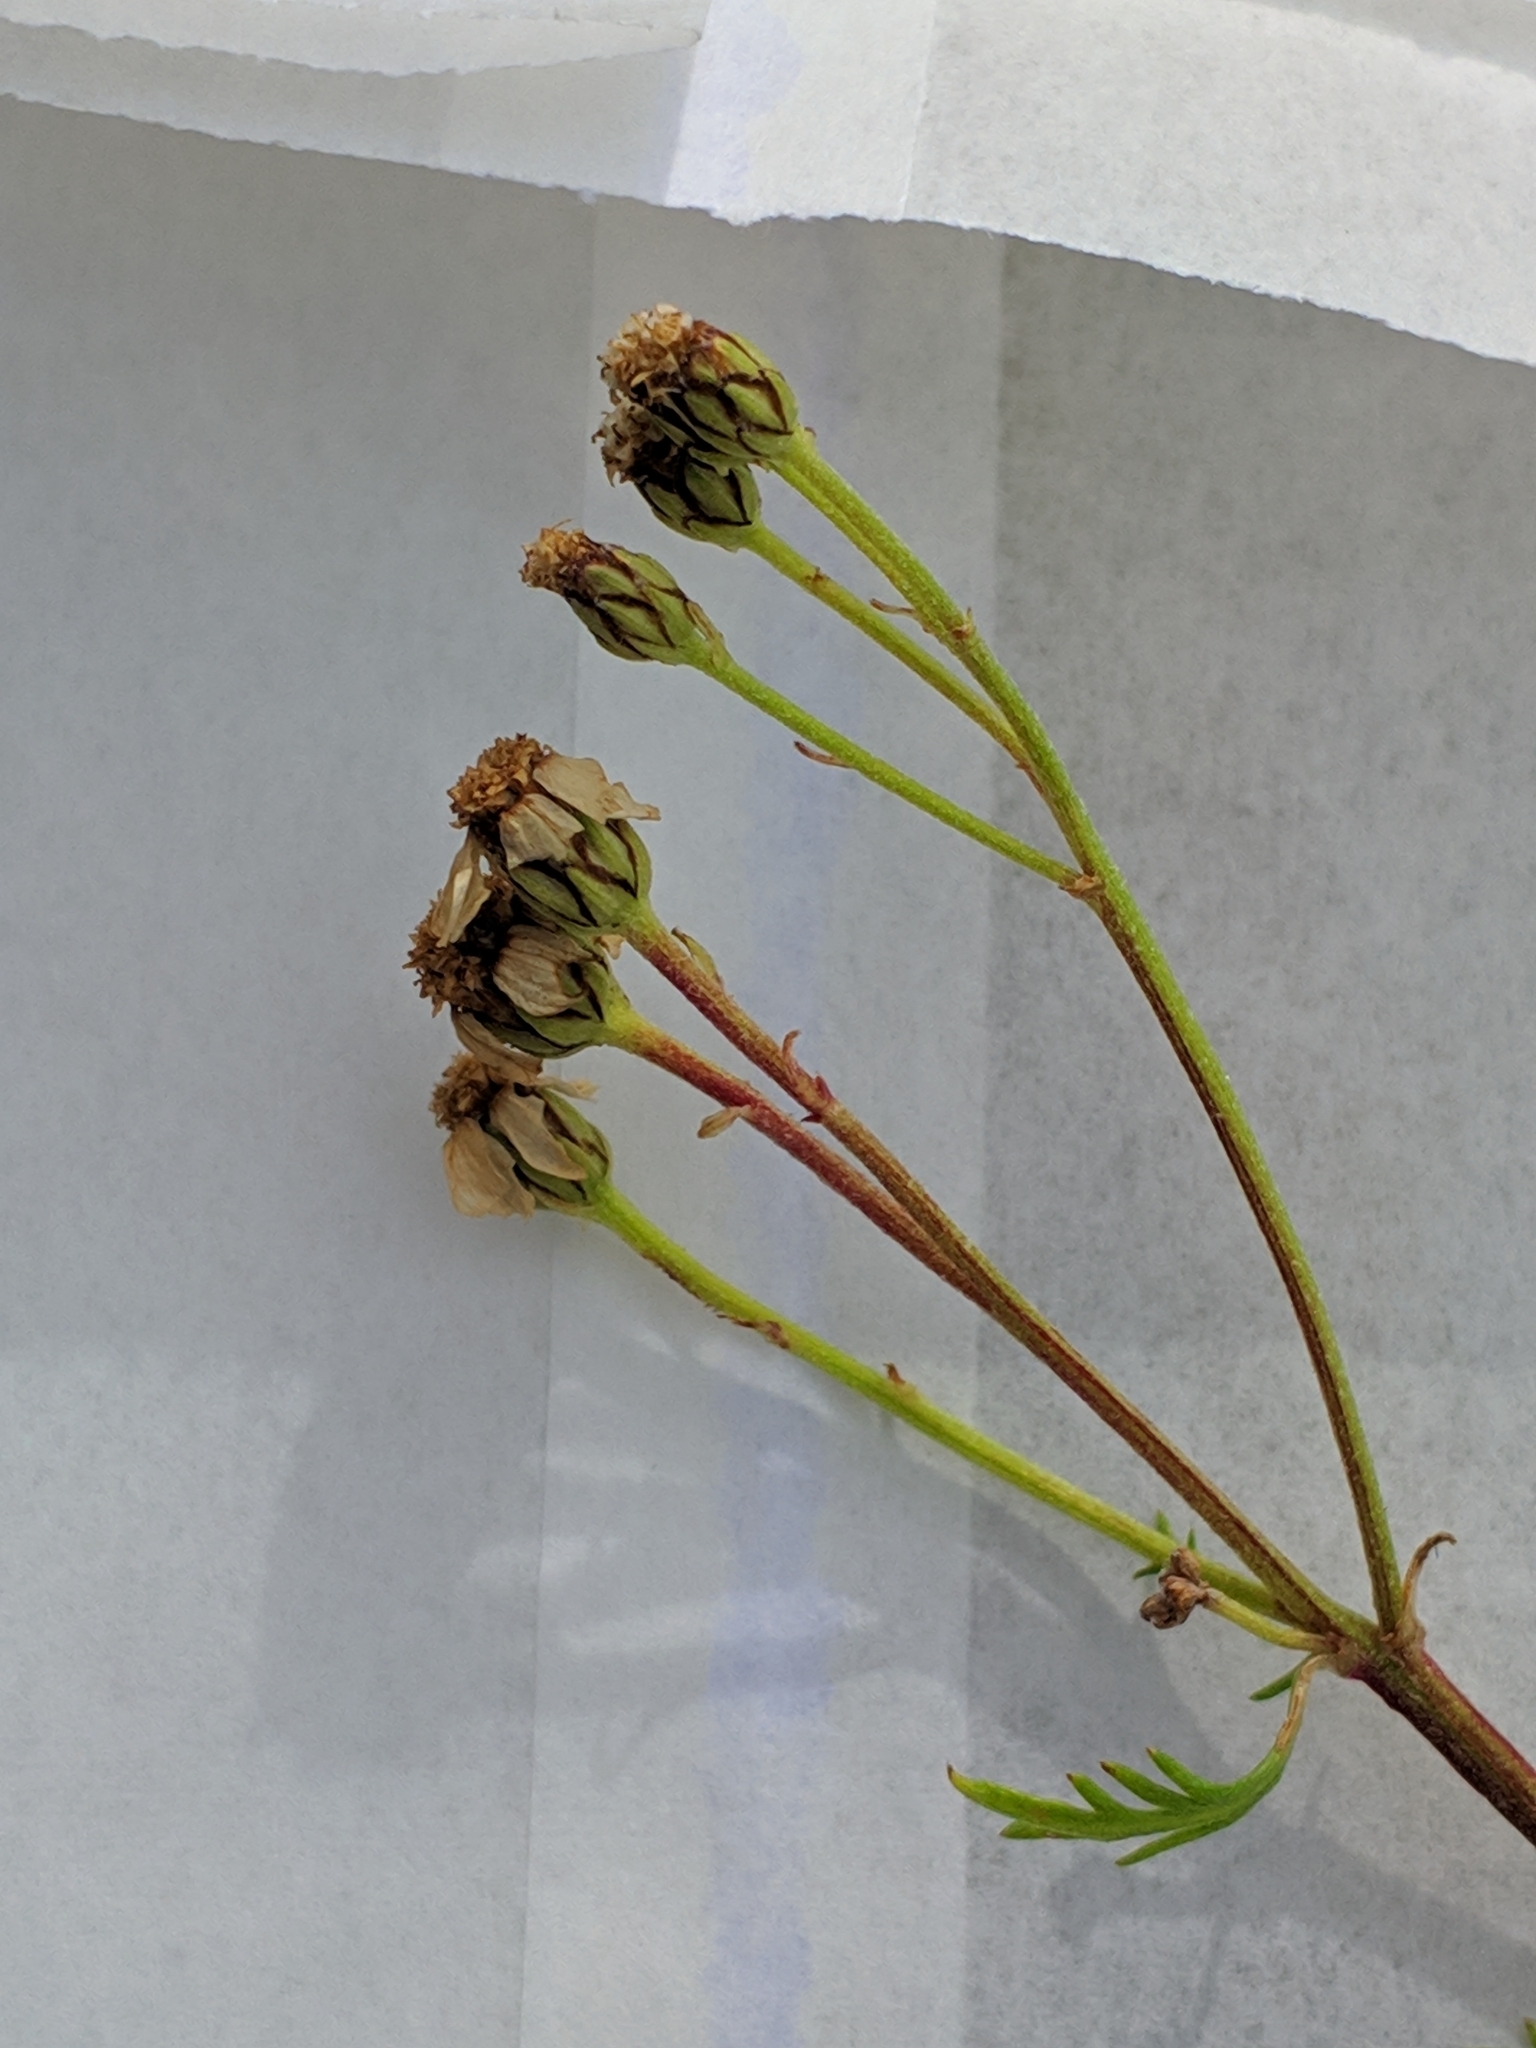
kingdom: Plantae
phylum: Tracheophyta
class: Magnoliopsida
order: Asterales
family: Asteraceae
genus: Achillea
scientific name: Achillea erba-rotta
